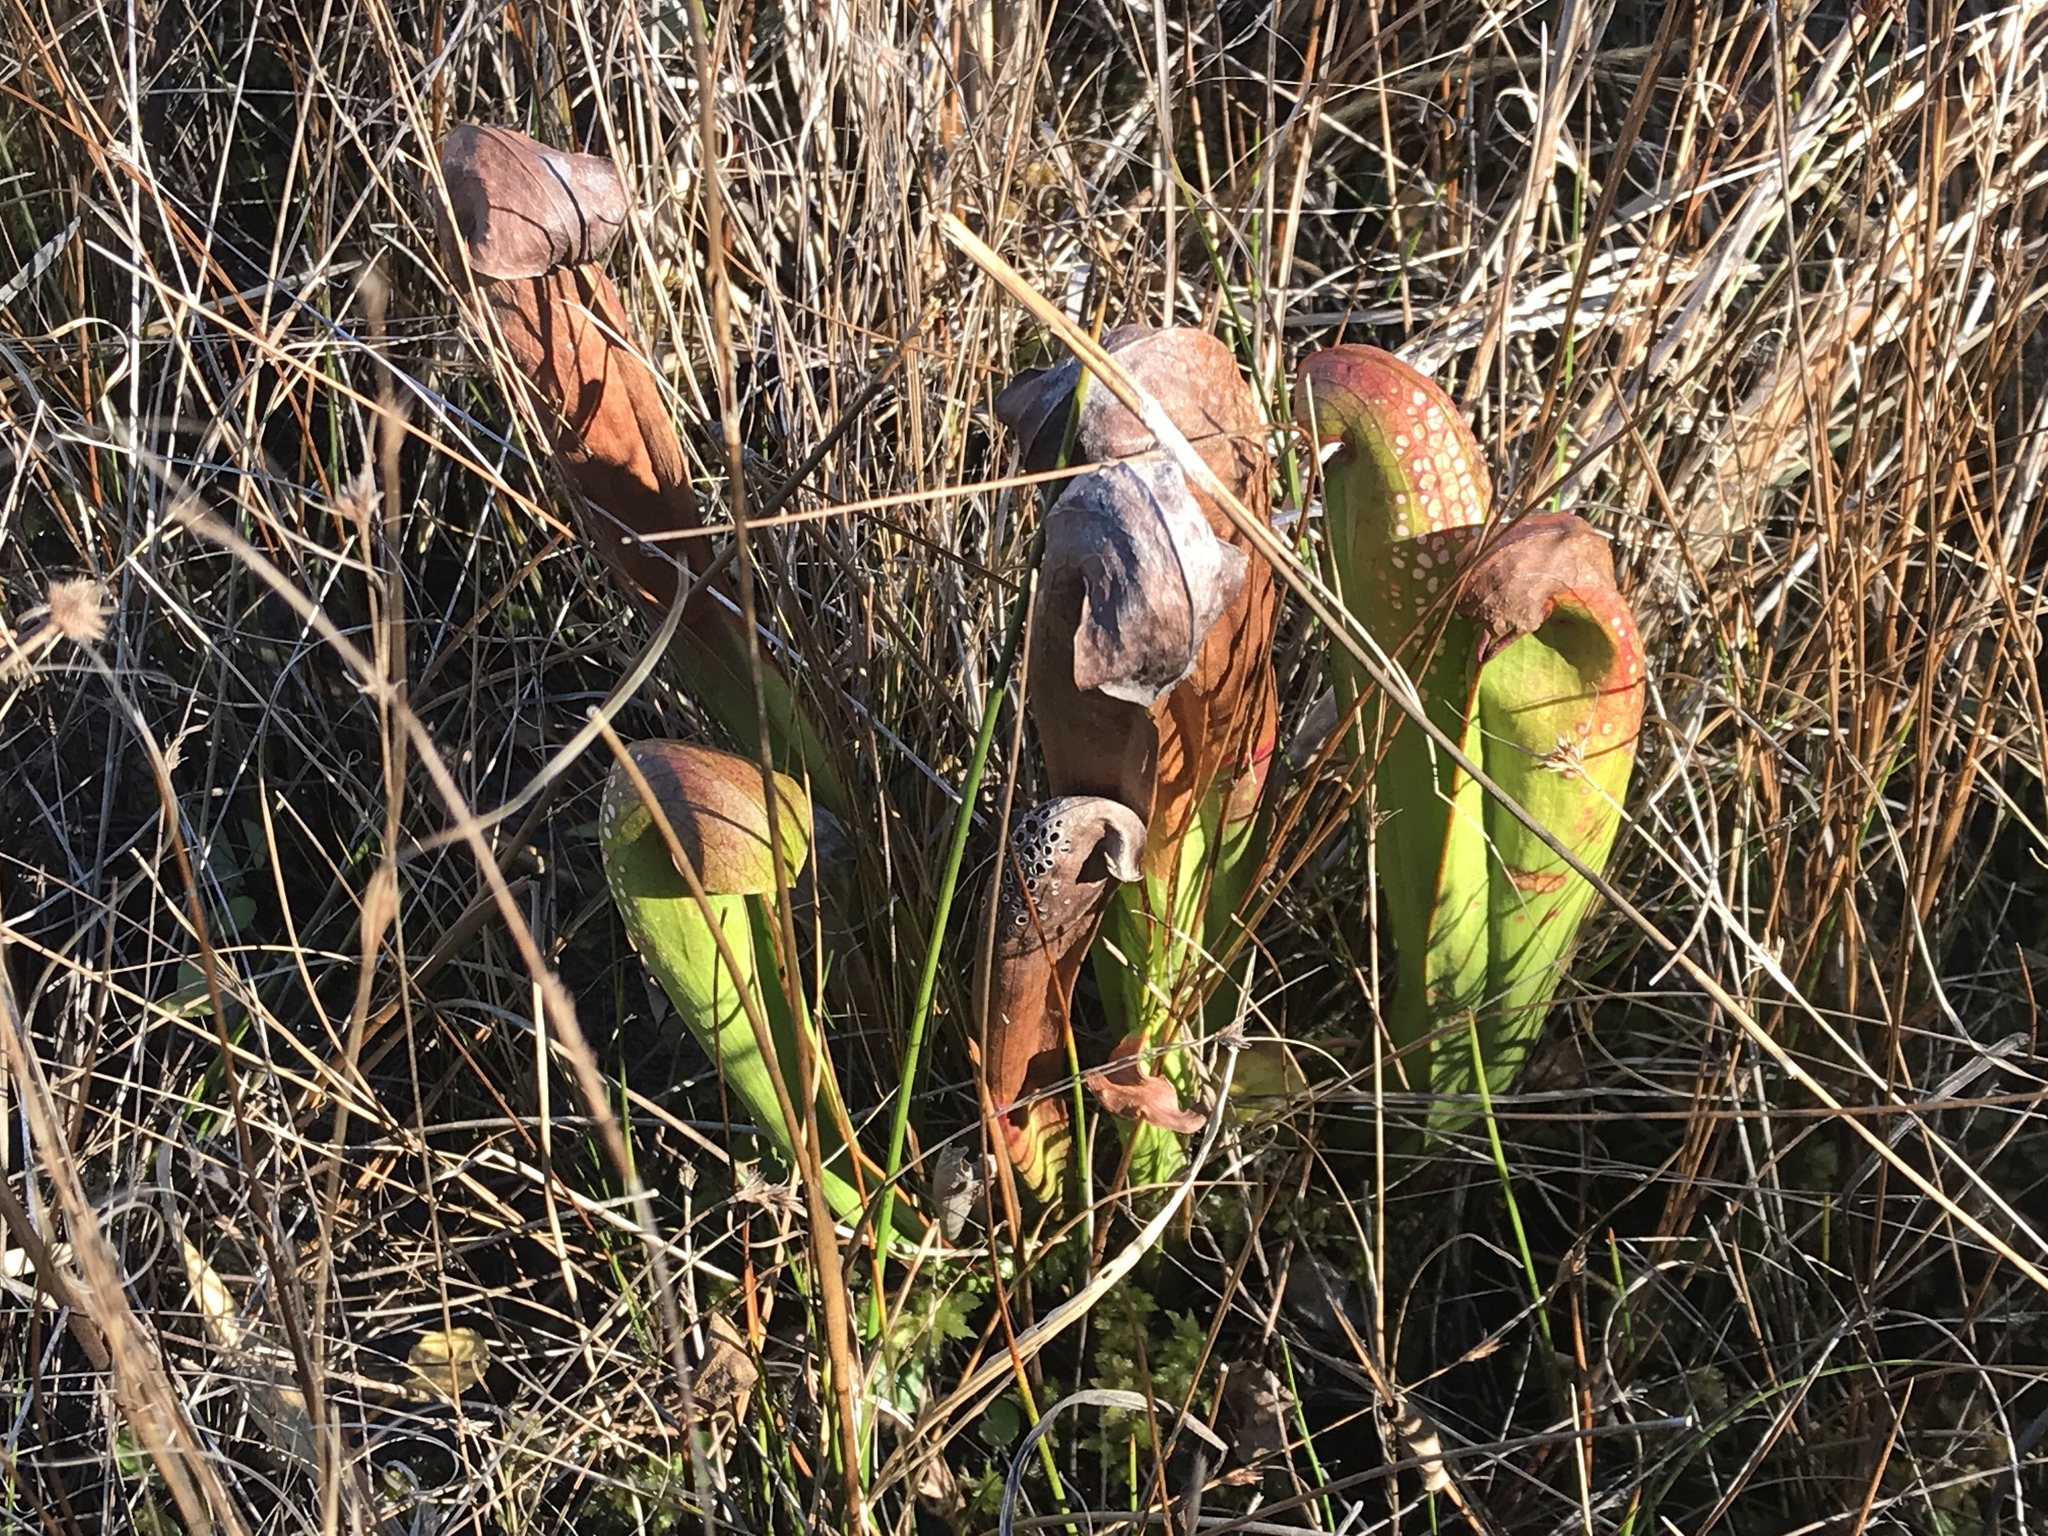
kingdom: Plantae
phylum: Tracheophyta
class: Magnoliopsida
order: Ericales
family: Sarraceniaceae
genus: Sarracenia
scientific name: Sarracenia minor
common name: Rainhat-trumpet
